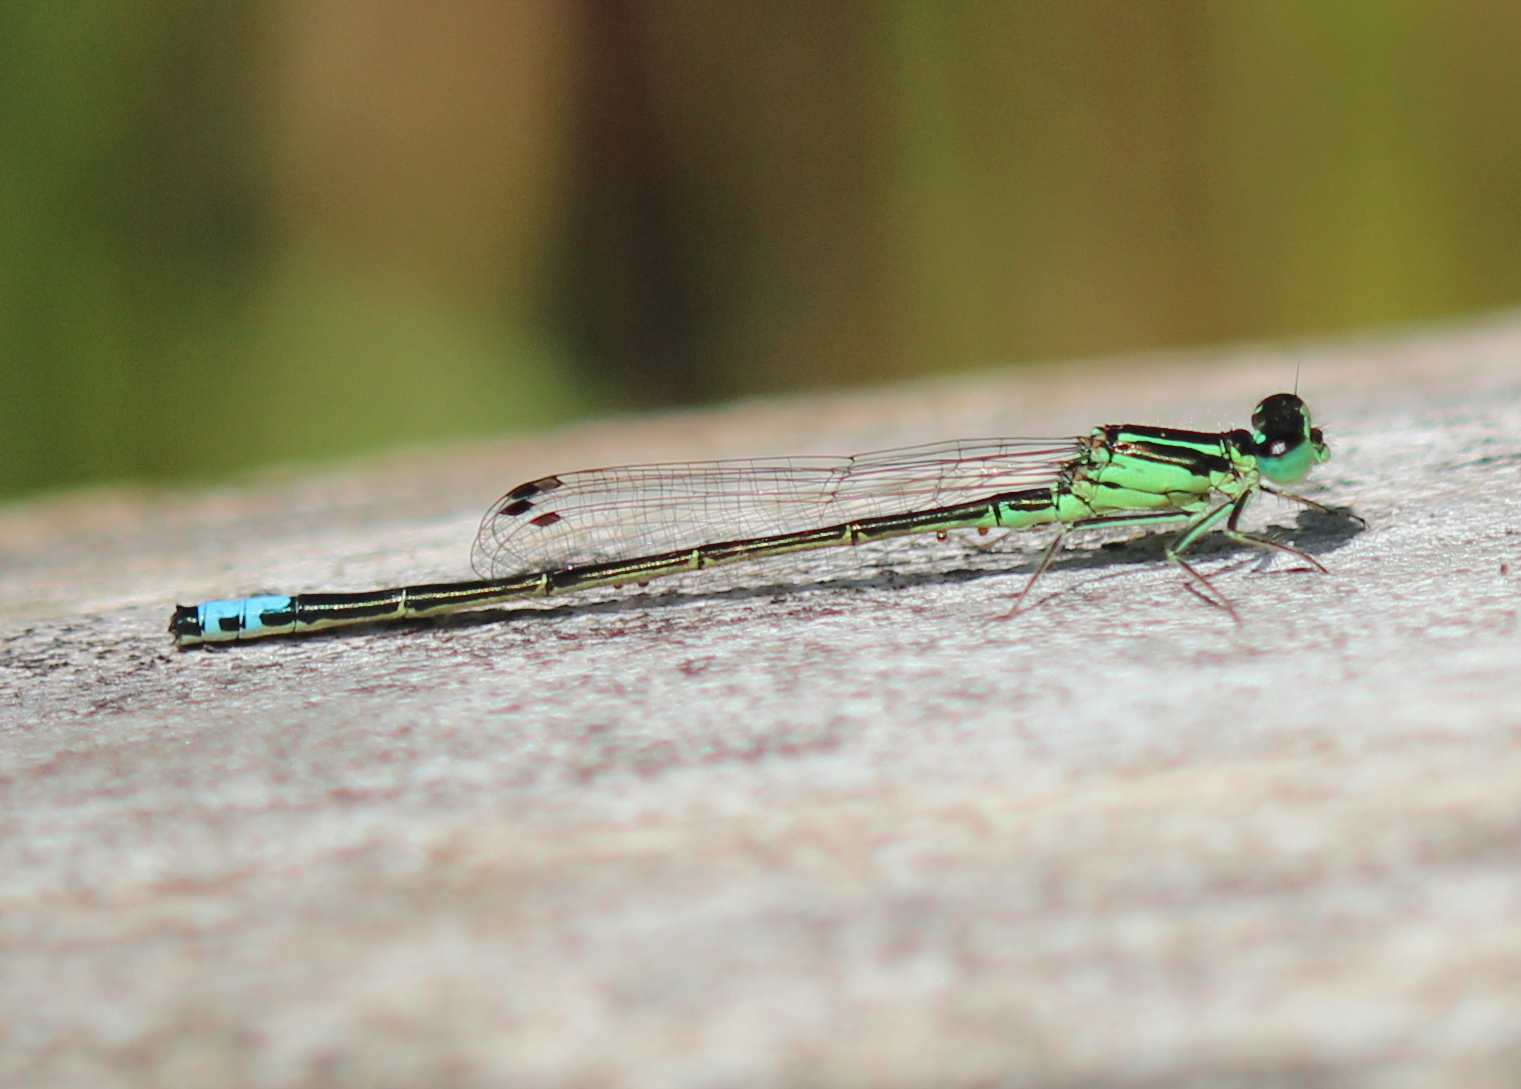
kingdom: Animalia
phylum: Arthropoda
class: Insecta
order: Odonata
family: Coenagrionidae
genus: Ischnura
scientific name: Ischnura verticalis
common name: Eastern forktail
